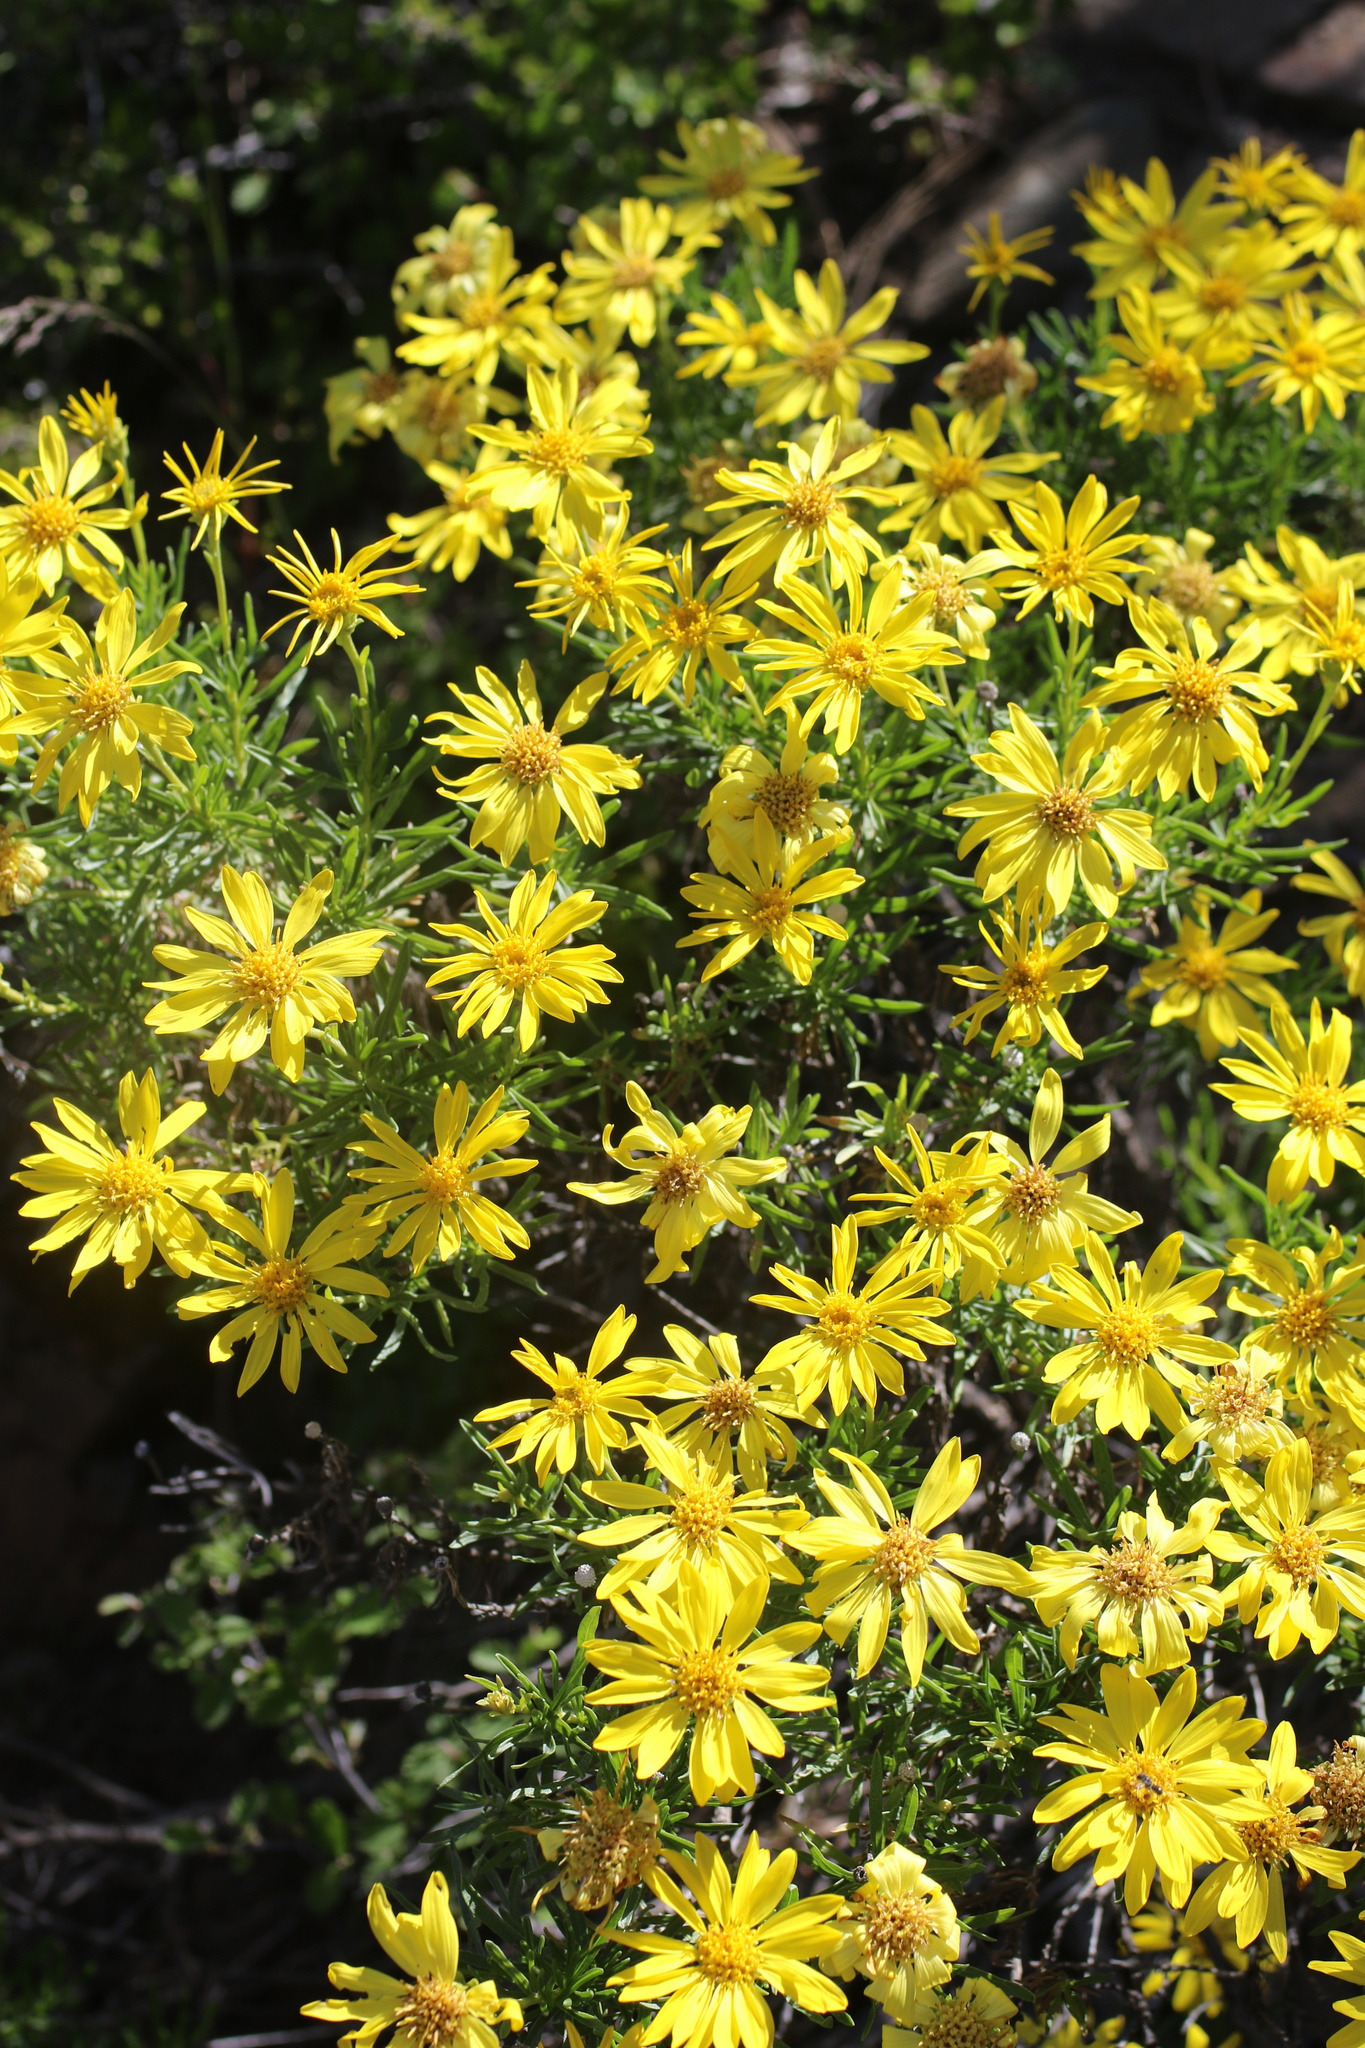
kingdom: Plantae
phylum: Tracheophyta
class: Magnoliopsida
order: Asterales
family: Asteraceae
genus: Ericameria
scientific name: Ericameria linearifolia
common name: Interior goldenbush
